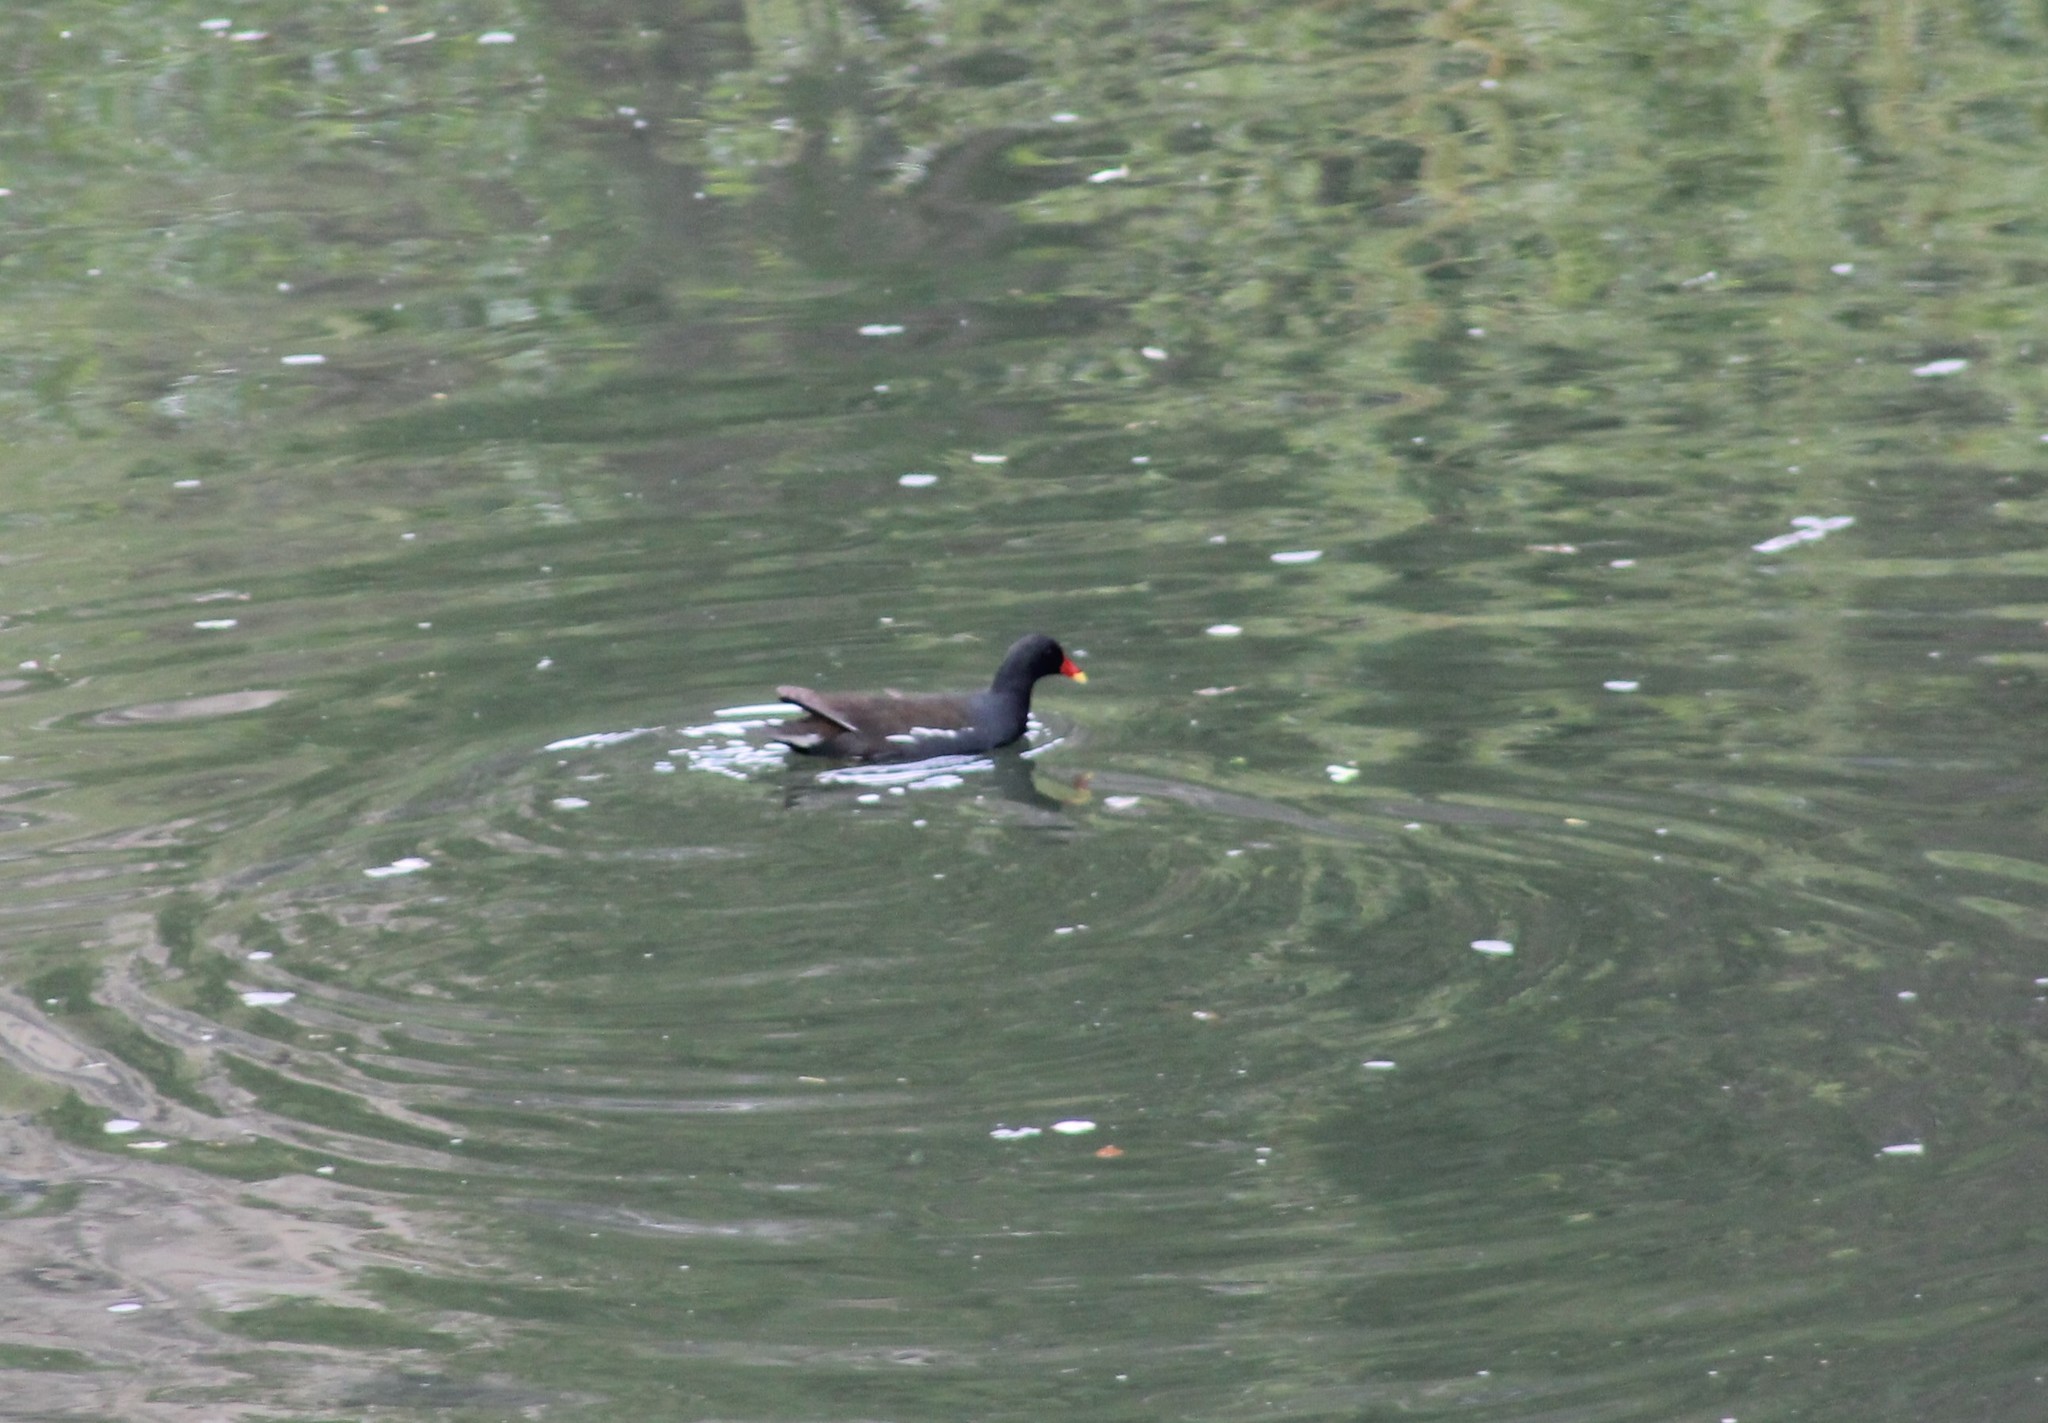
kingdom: Animalia
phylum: Chordata
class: Aves
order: Gruiformes
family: Rallidae
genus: Gallinula
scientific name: Gallinula chloropus
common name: Common moorhen
